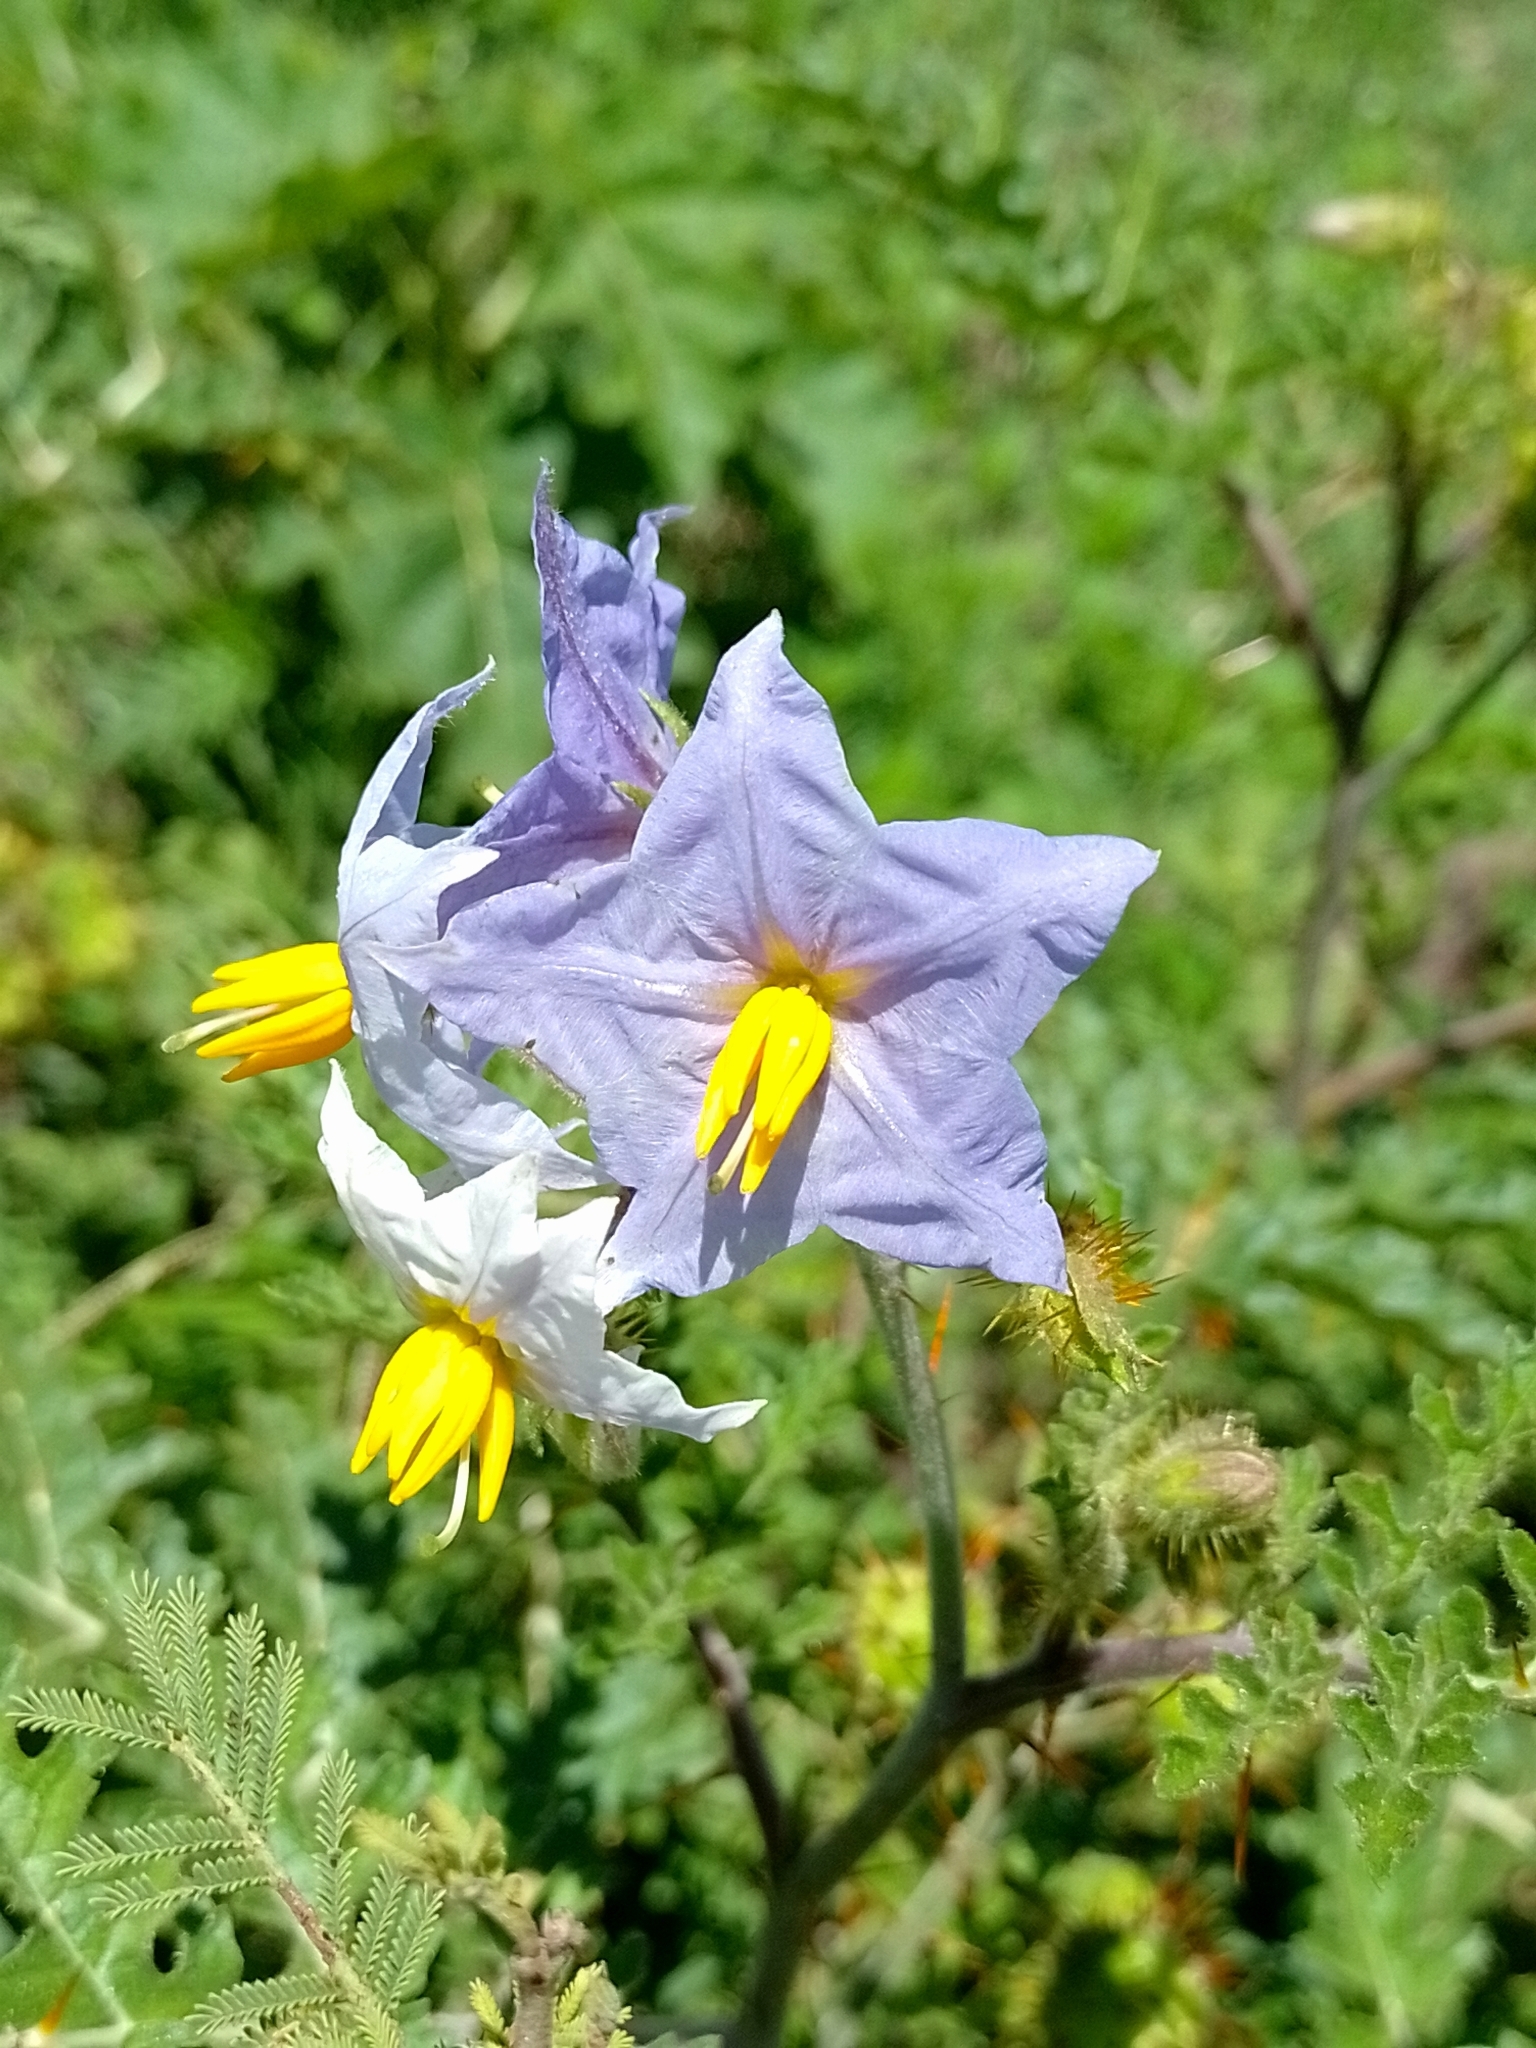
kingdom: Plantae
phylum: Tracheophyta
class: Magnoliopsida
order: Solanales
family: Solanaceae
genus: Solanum
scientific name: Solanum sisymbriifolium
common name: Red buffalo-bur
